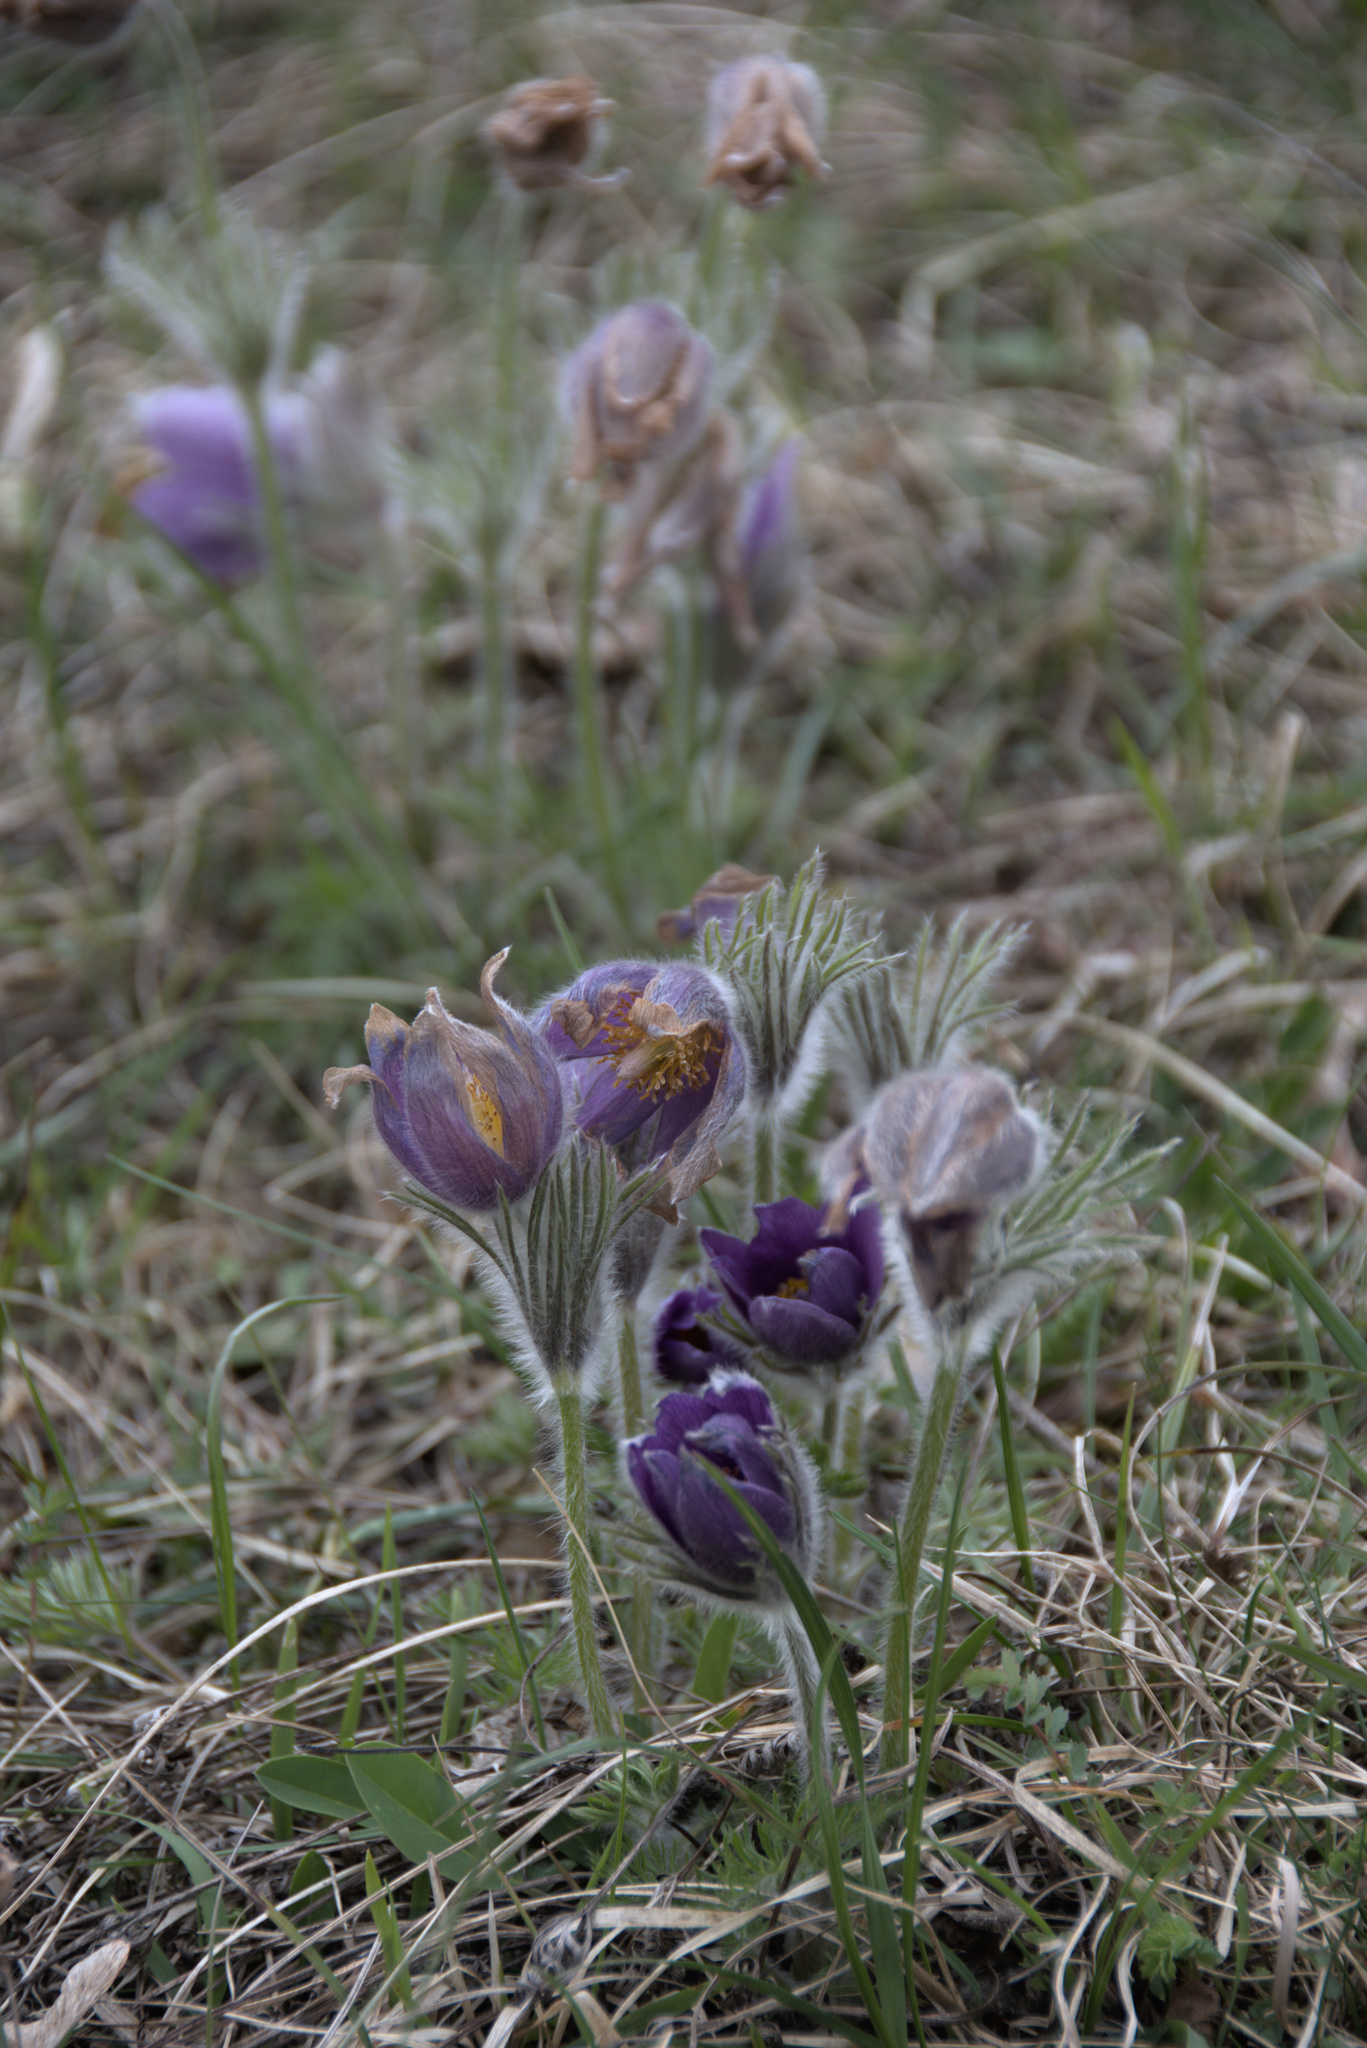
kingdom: Plantae
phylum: Tracheophyta
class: Magnoliopsida
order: Ranunculales
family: Ranunculaceae
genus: Pulsatilla
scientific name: Pulsatilla vulgaris
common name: Pasqueflower
